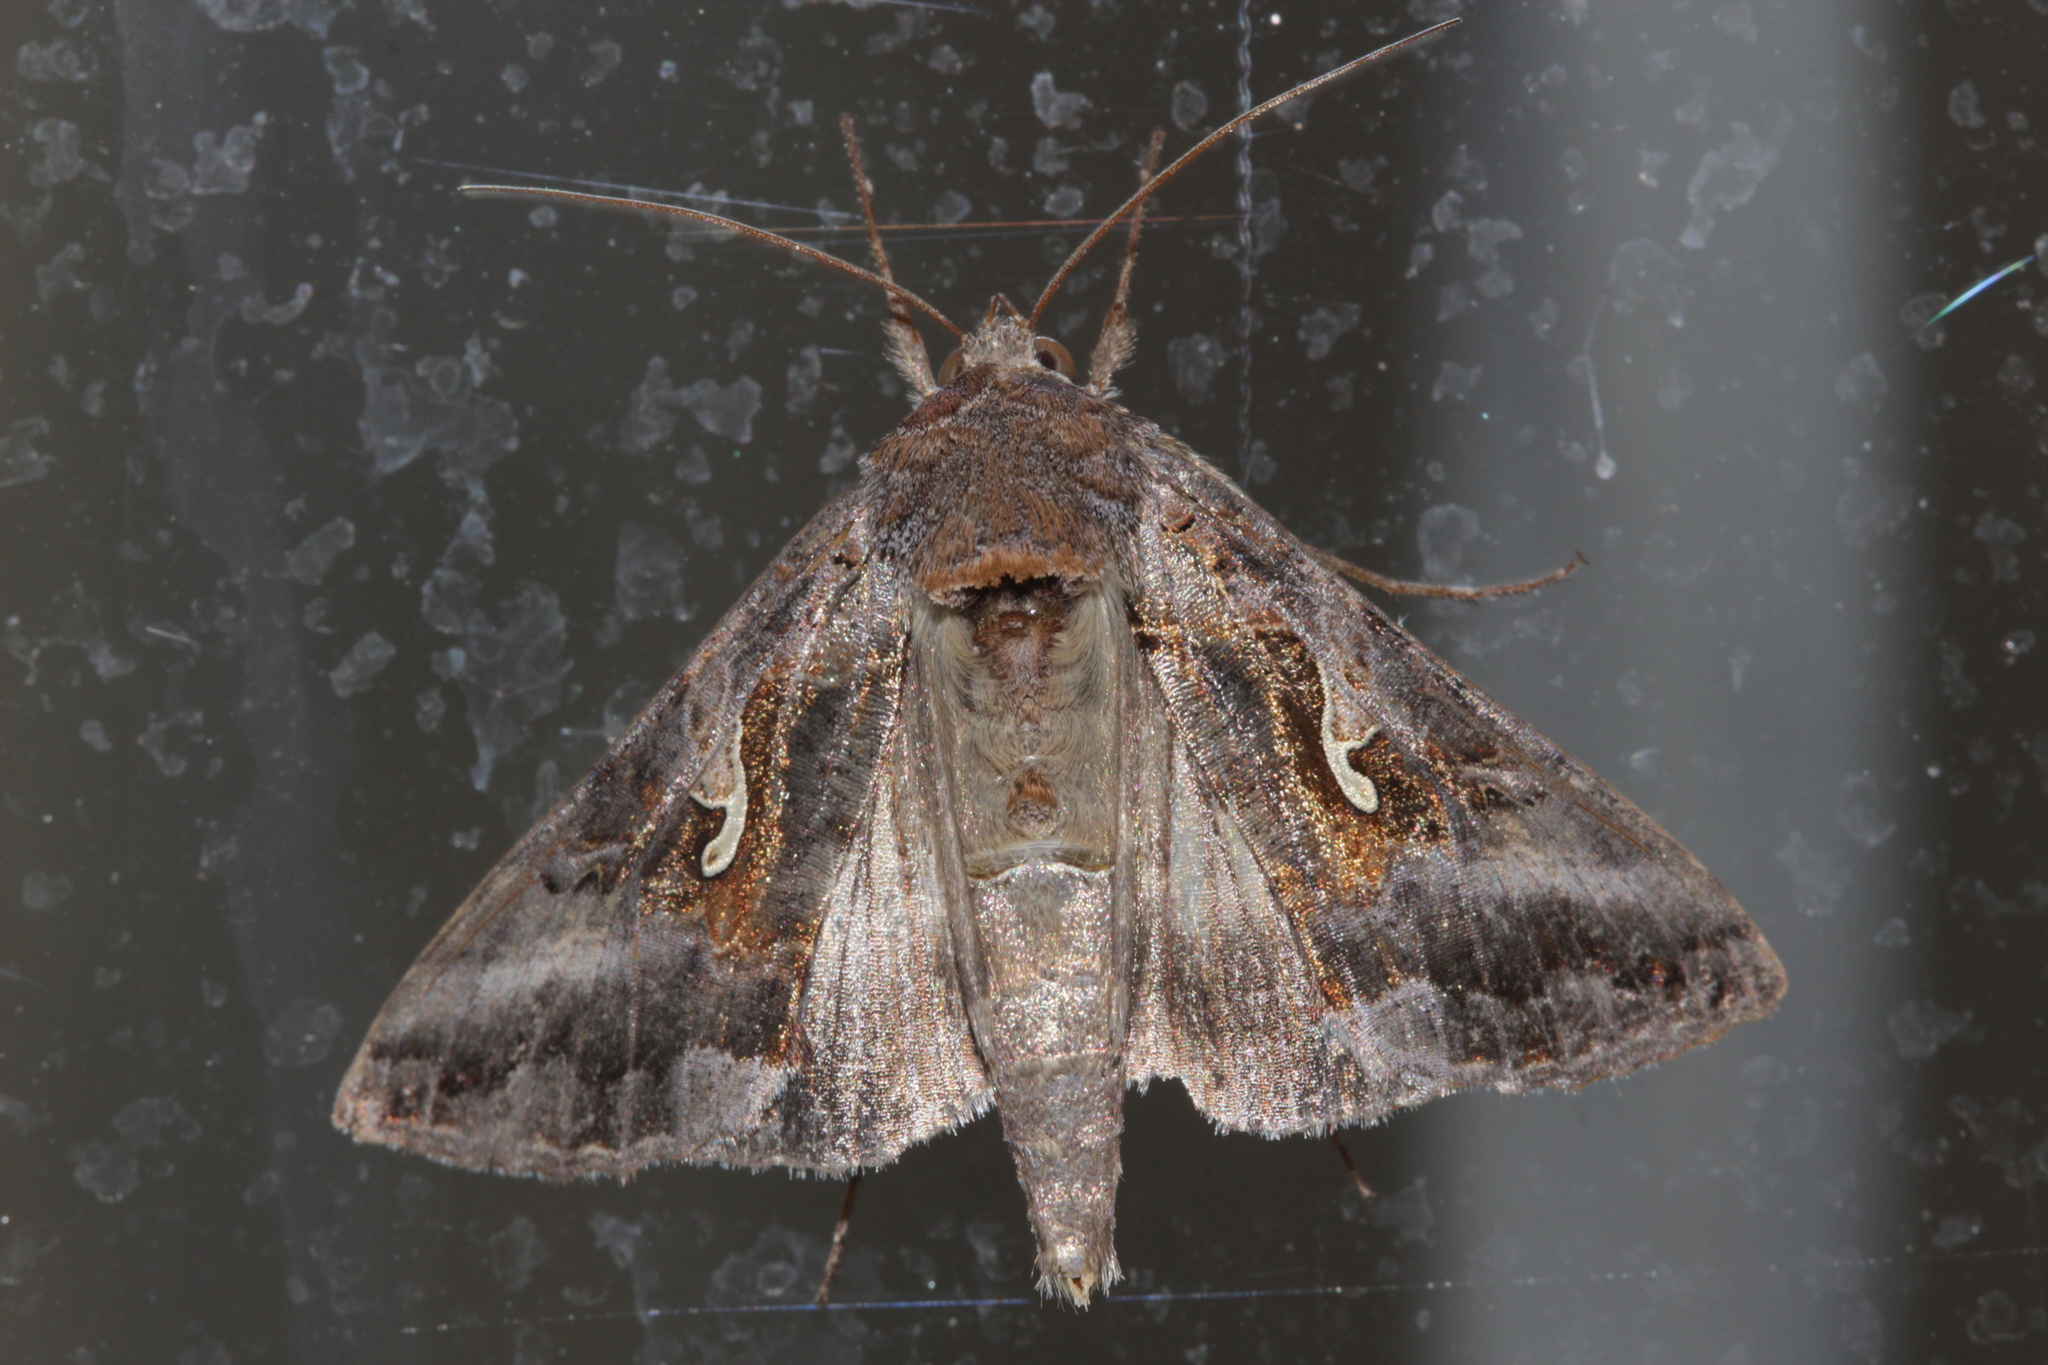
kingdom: Animalia
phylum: Arthropoda
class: Insecta
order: Lepidoptera
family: Noctuidae
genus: Autographa
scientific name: Autographa gamma
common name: Silver y
